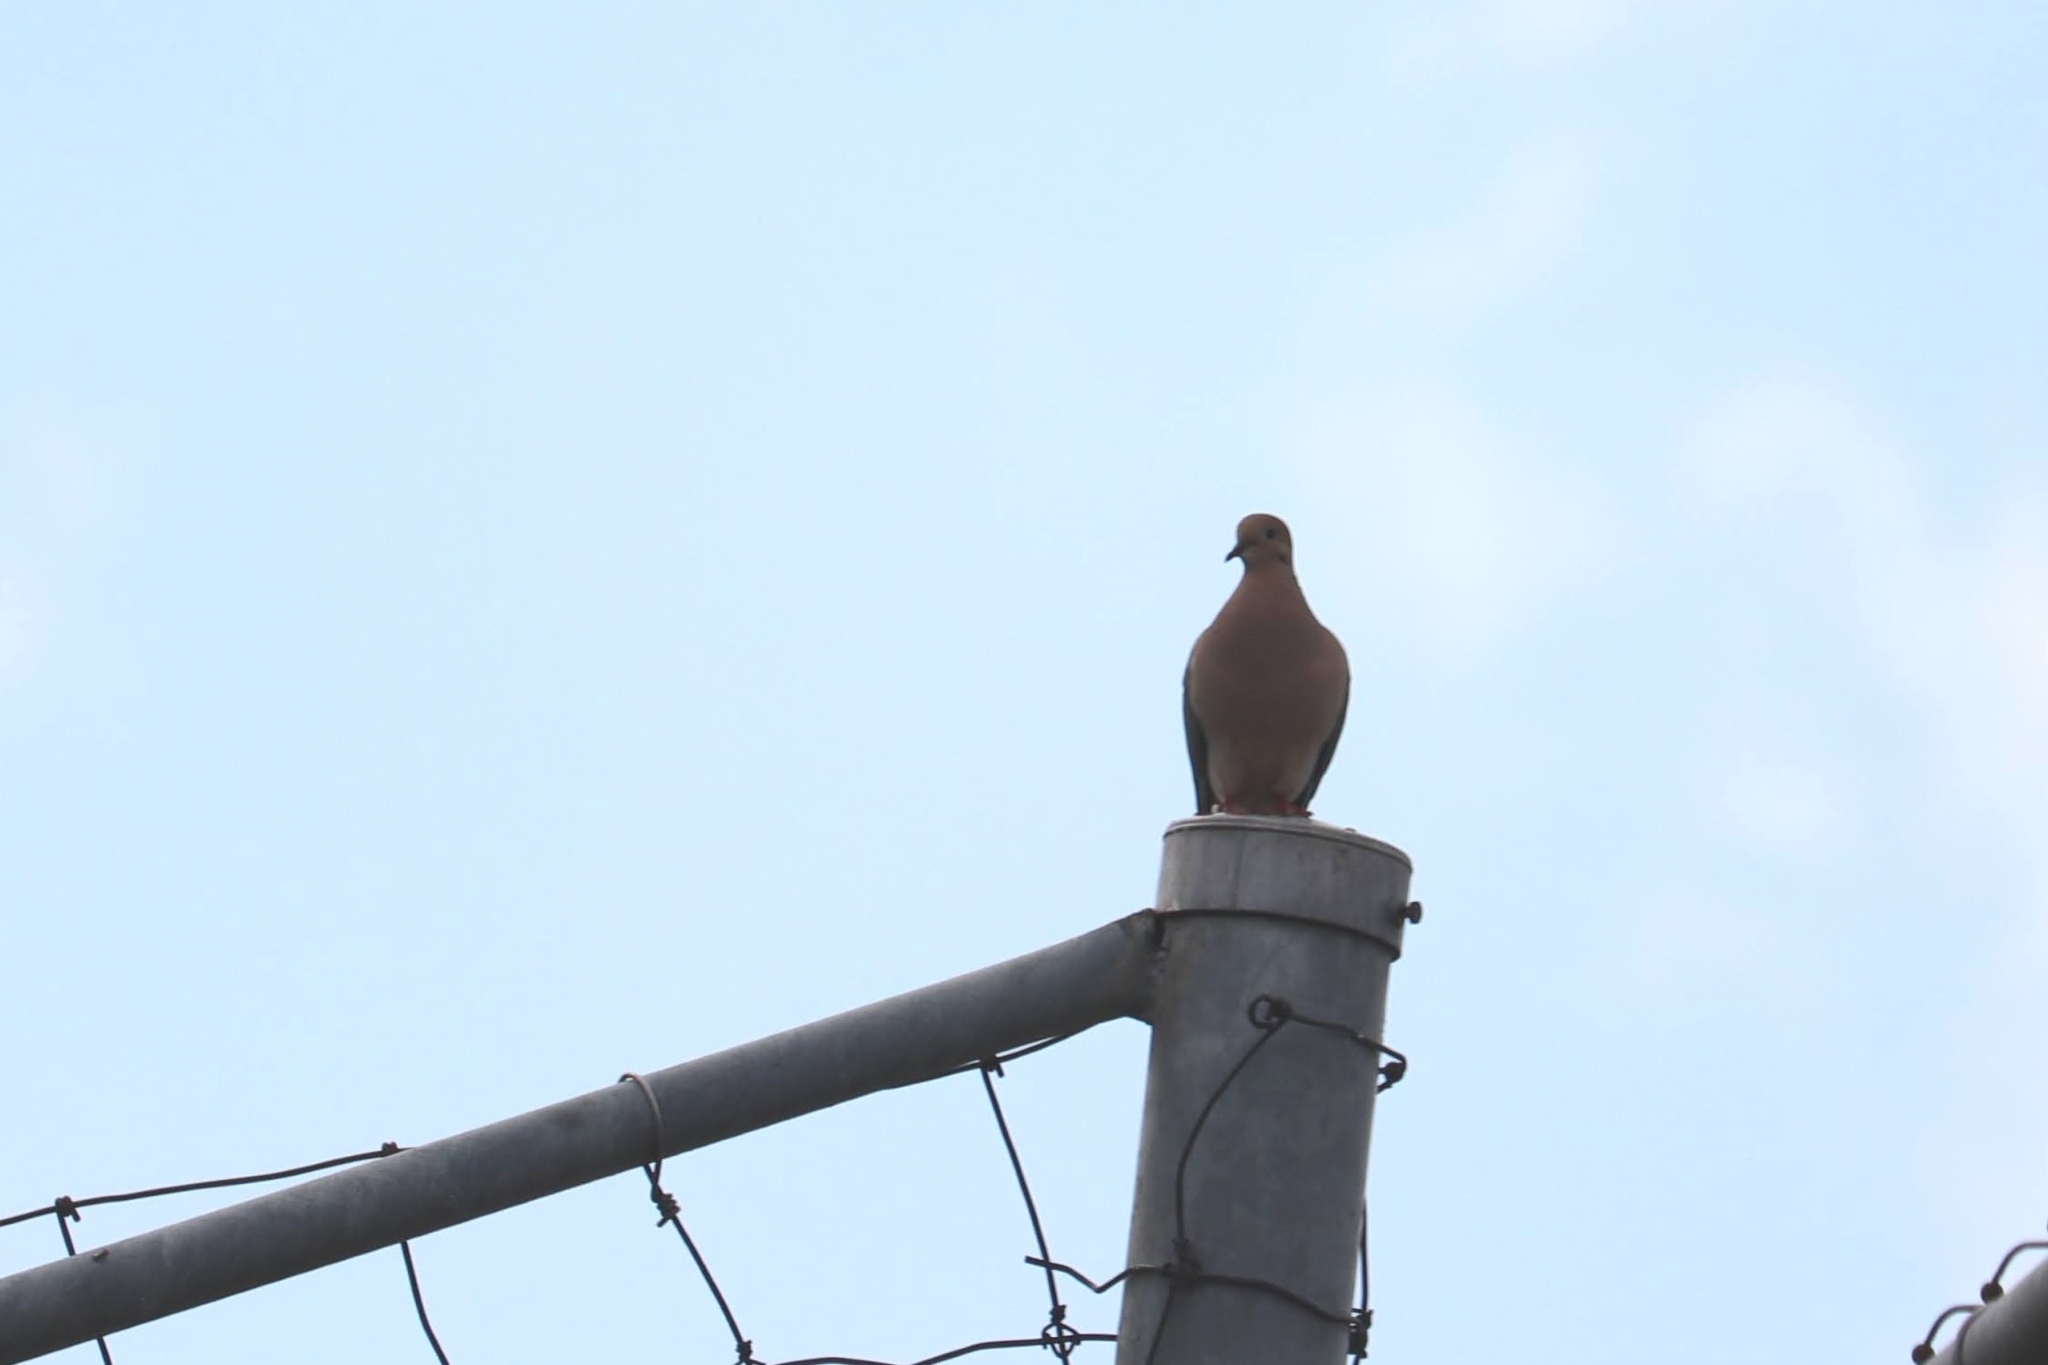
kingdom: Animalia
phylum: Chordata
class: Aves
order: Columbiformes
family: Columbidae
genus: Zenaida
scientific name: Zenaida macroura
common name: Mourning dove
